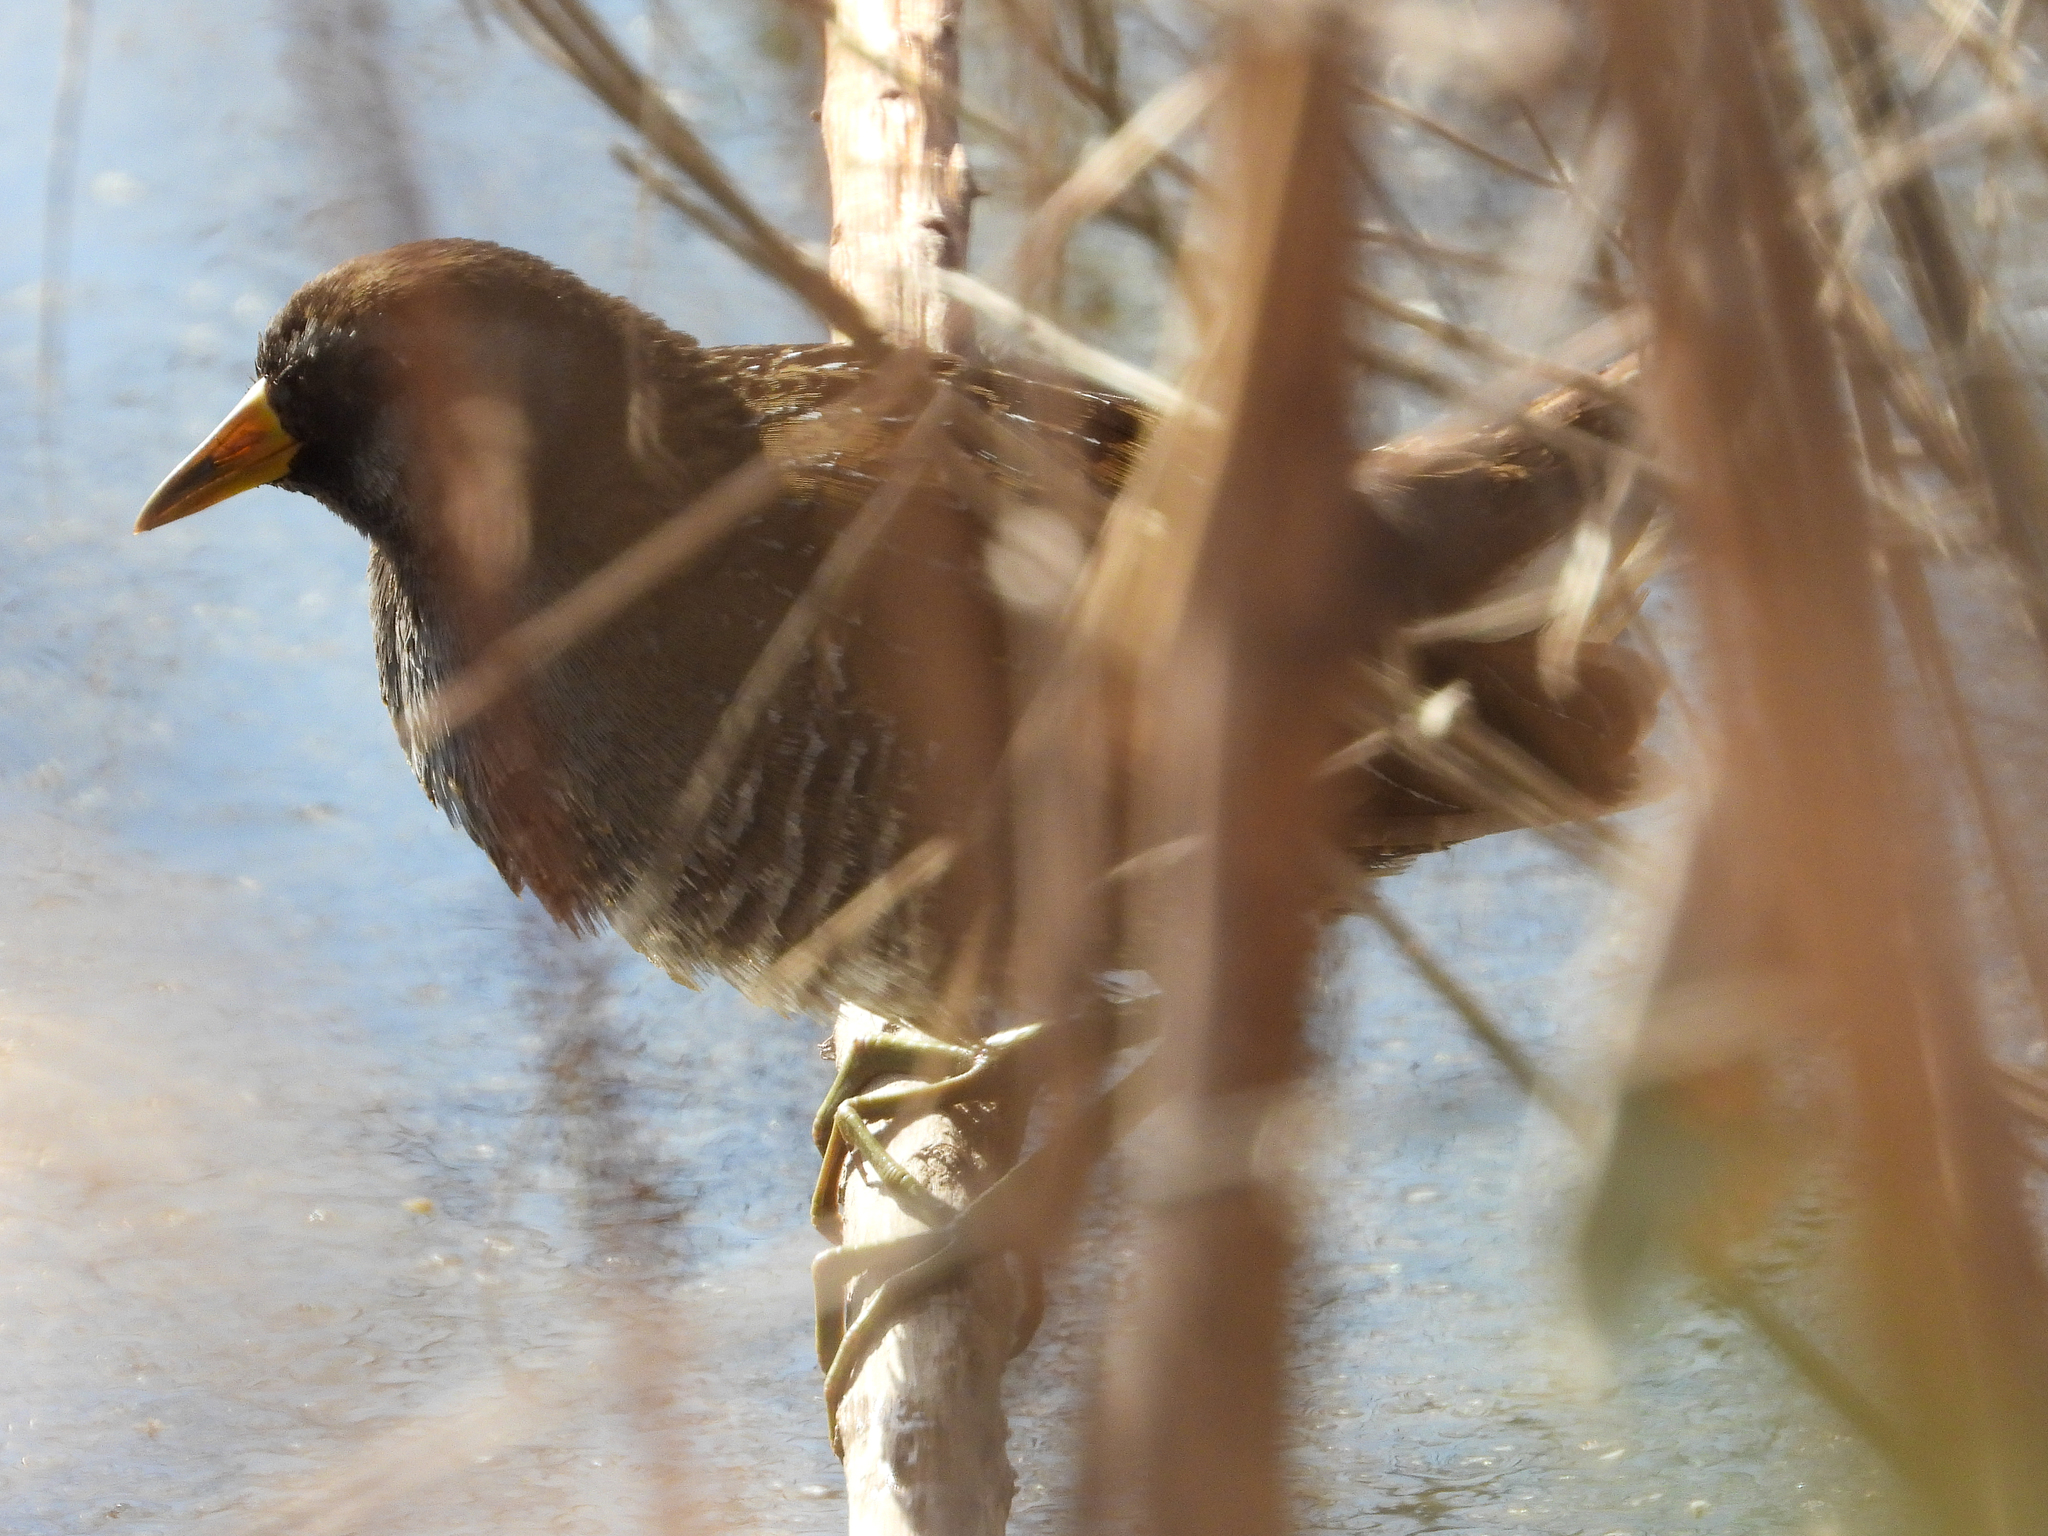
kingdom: Animalia
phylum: Chordata
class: Aves
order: Gruiformes
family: Rallidae
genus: Porzana
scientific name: Porzana carolina
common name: Sora
